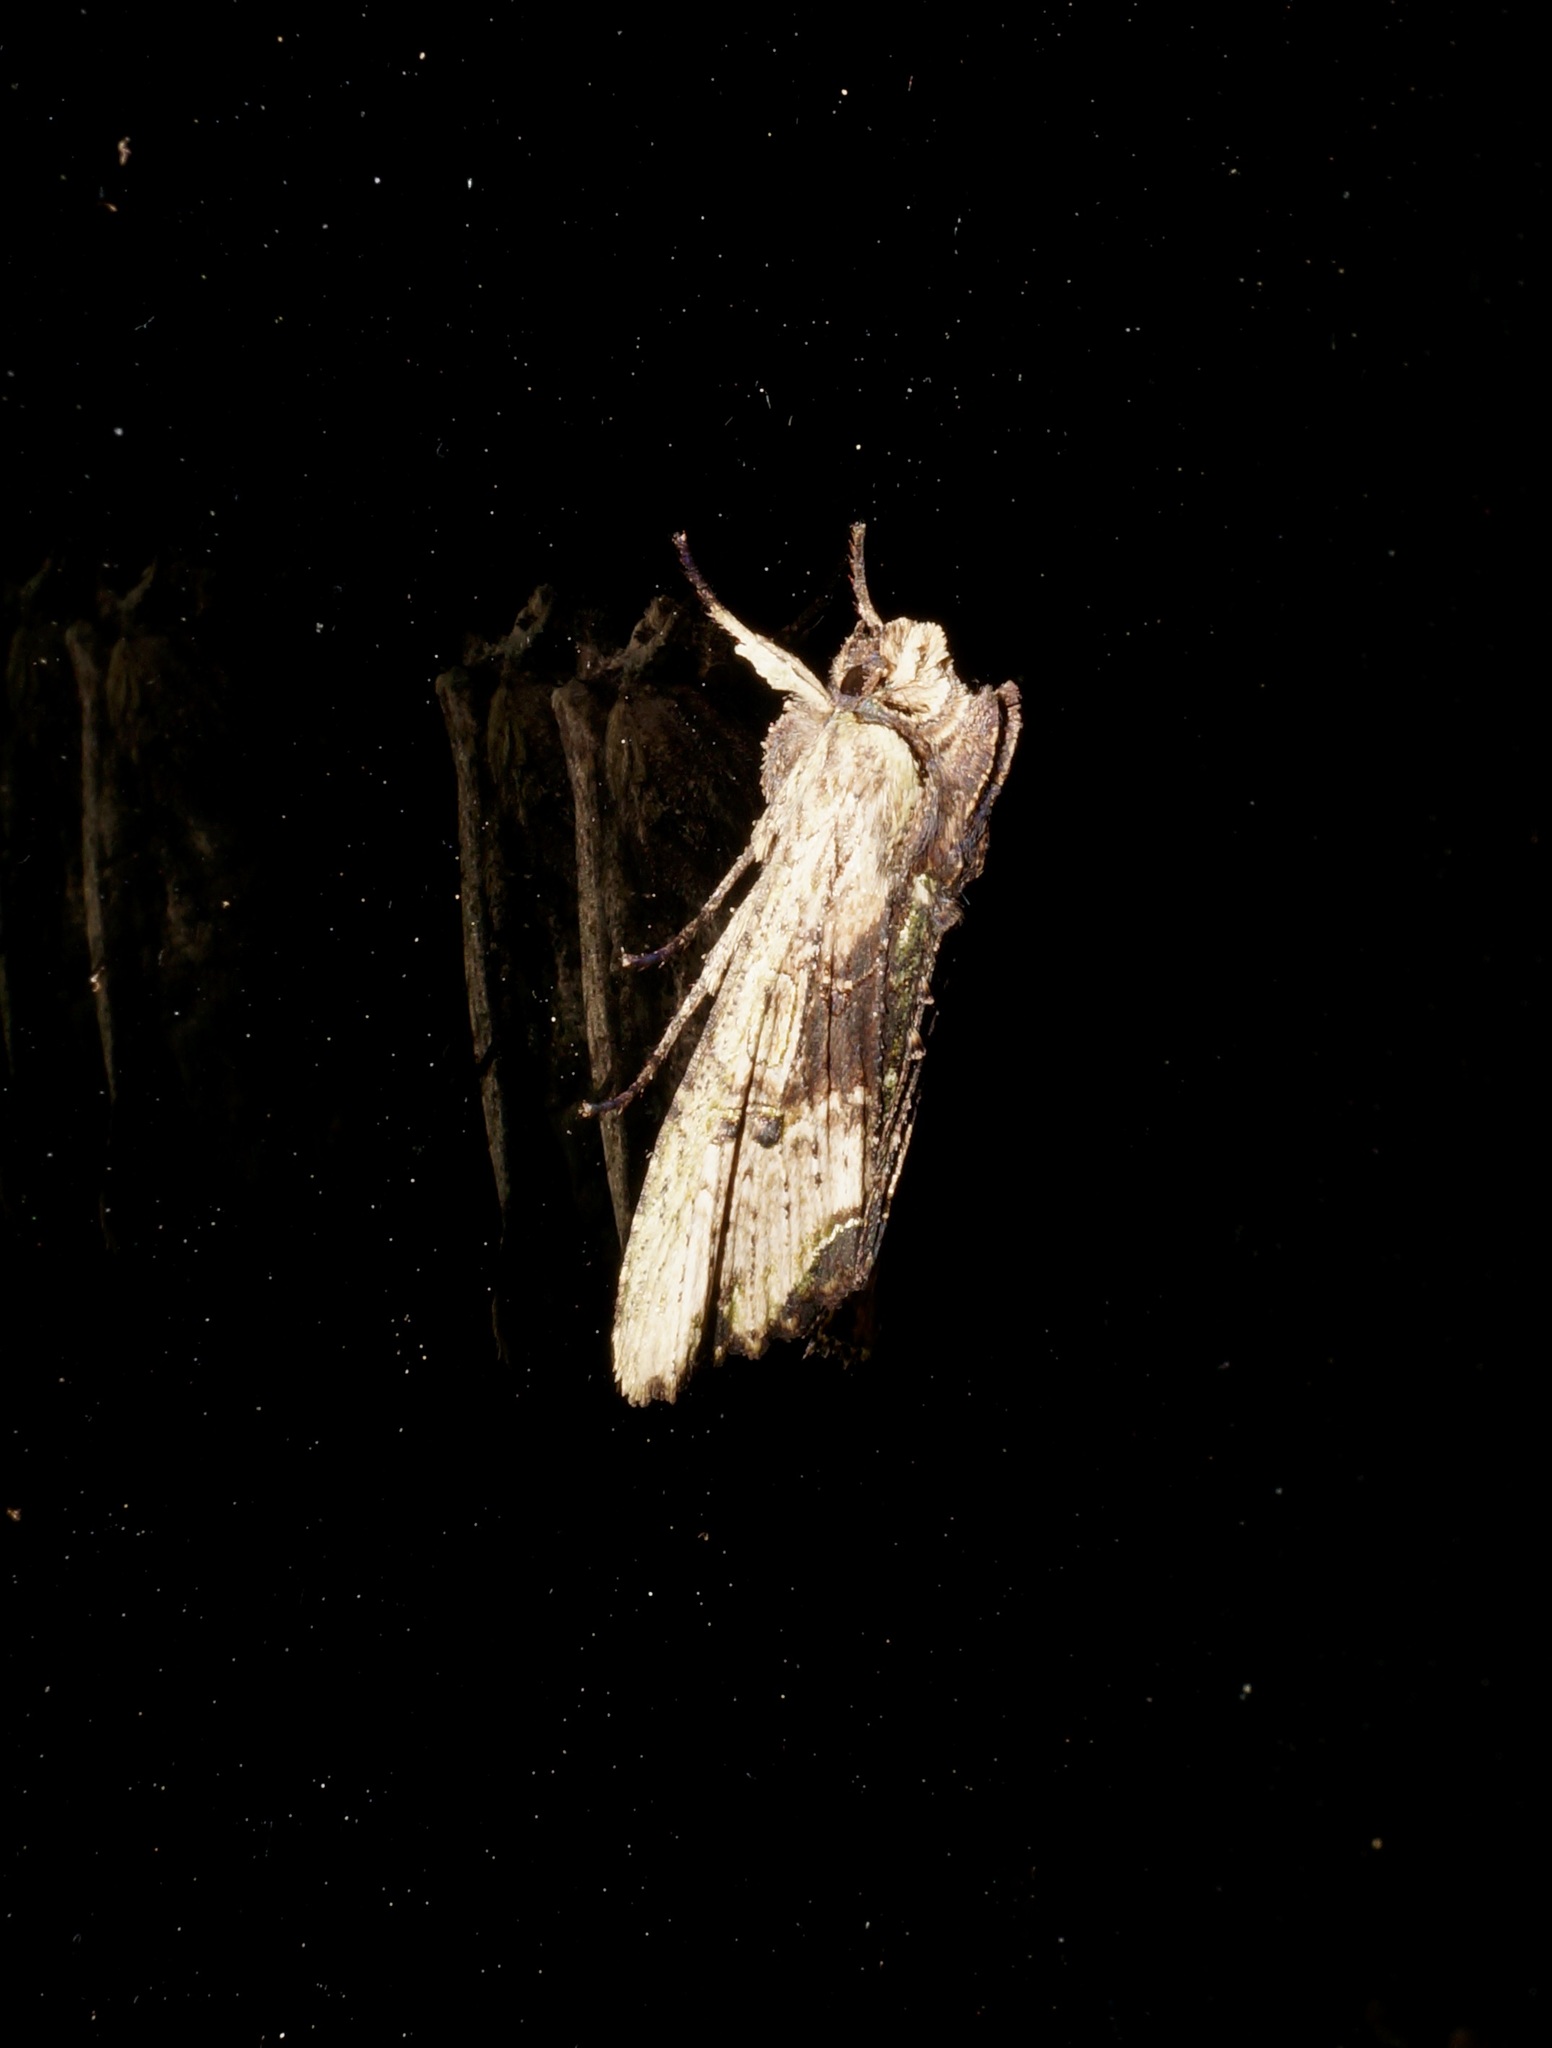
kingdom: Animalia
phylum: Arthropoda
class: Insecta
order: Lepidoptera
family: Noctuidae
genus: Meterana
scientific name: Meterana coeleno
